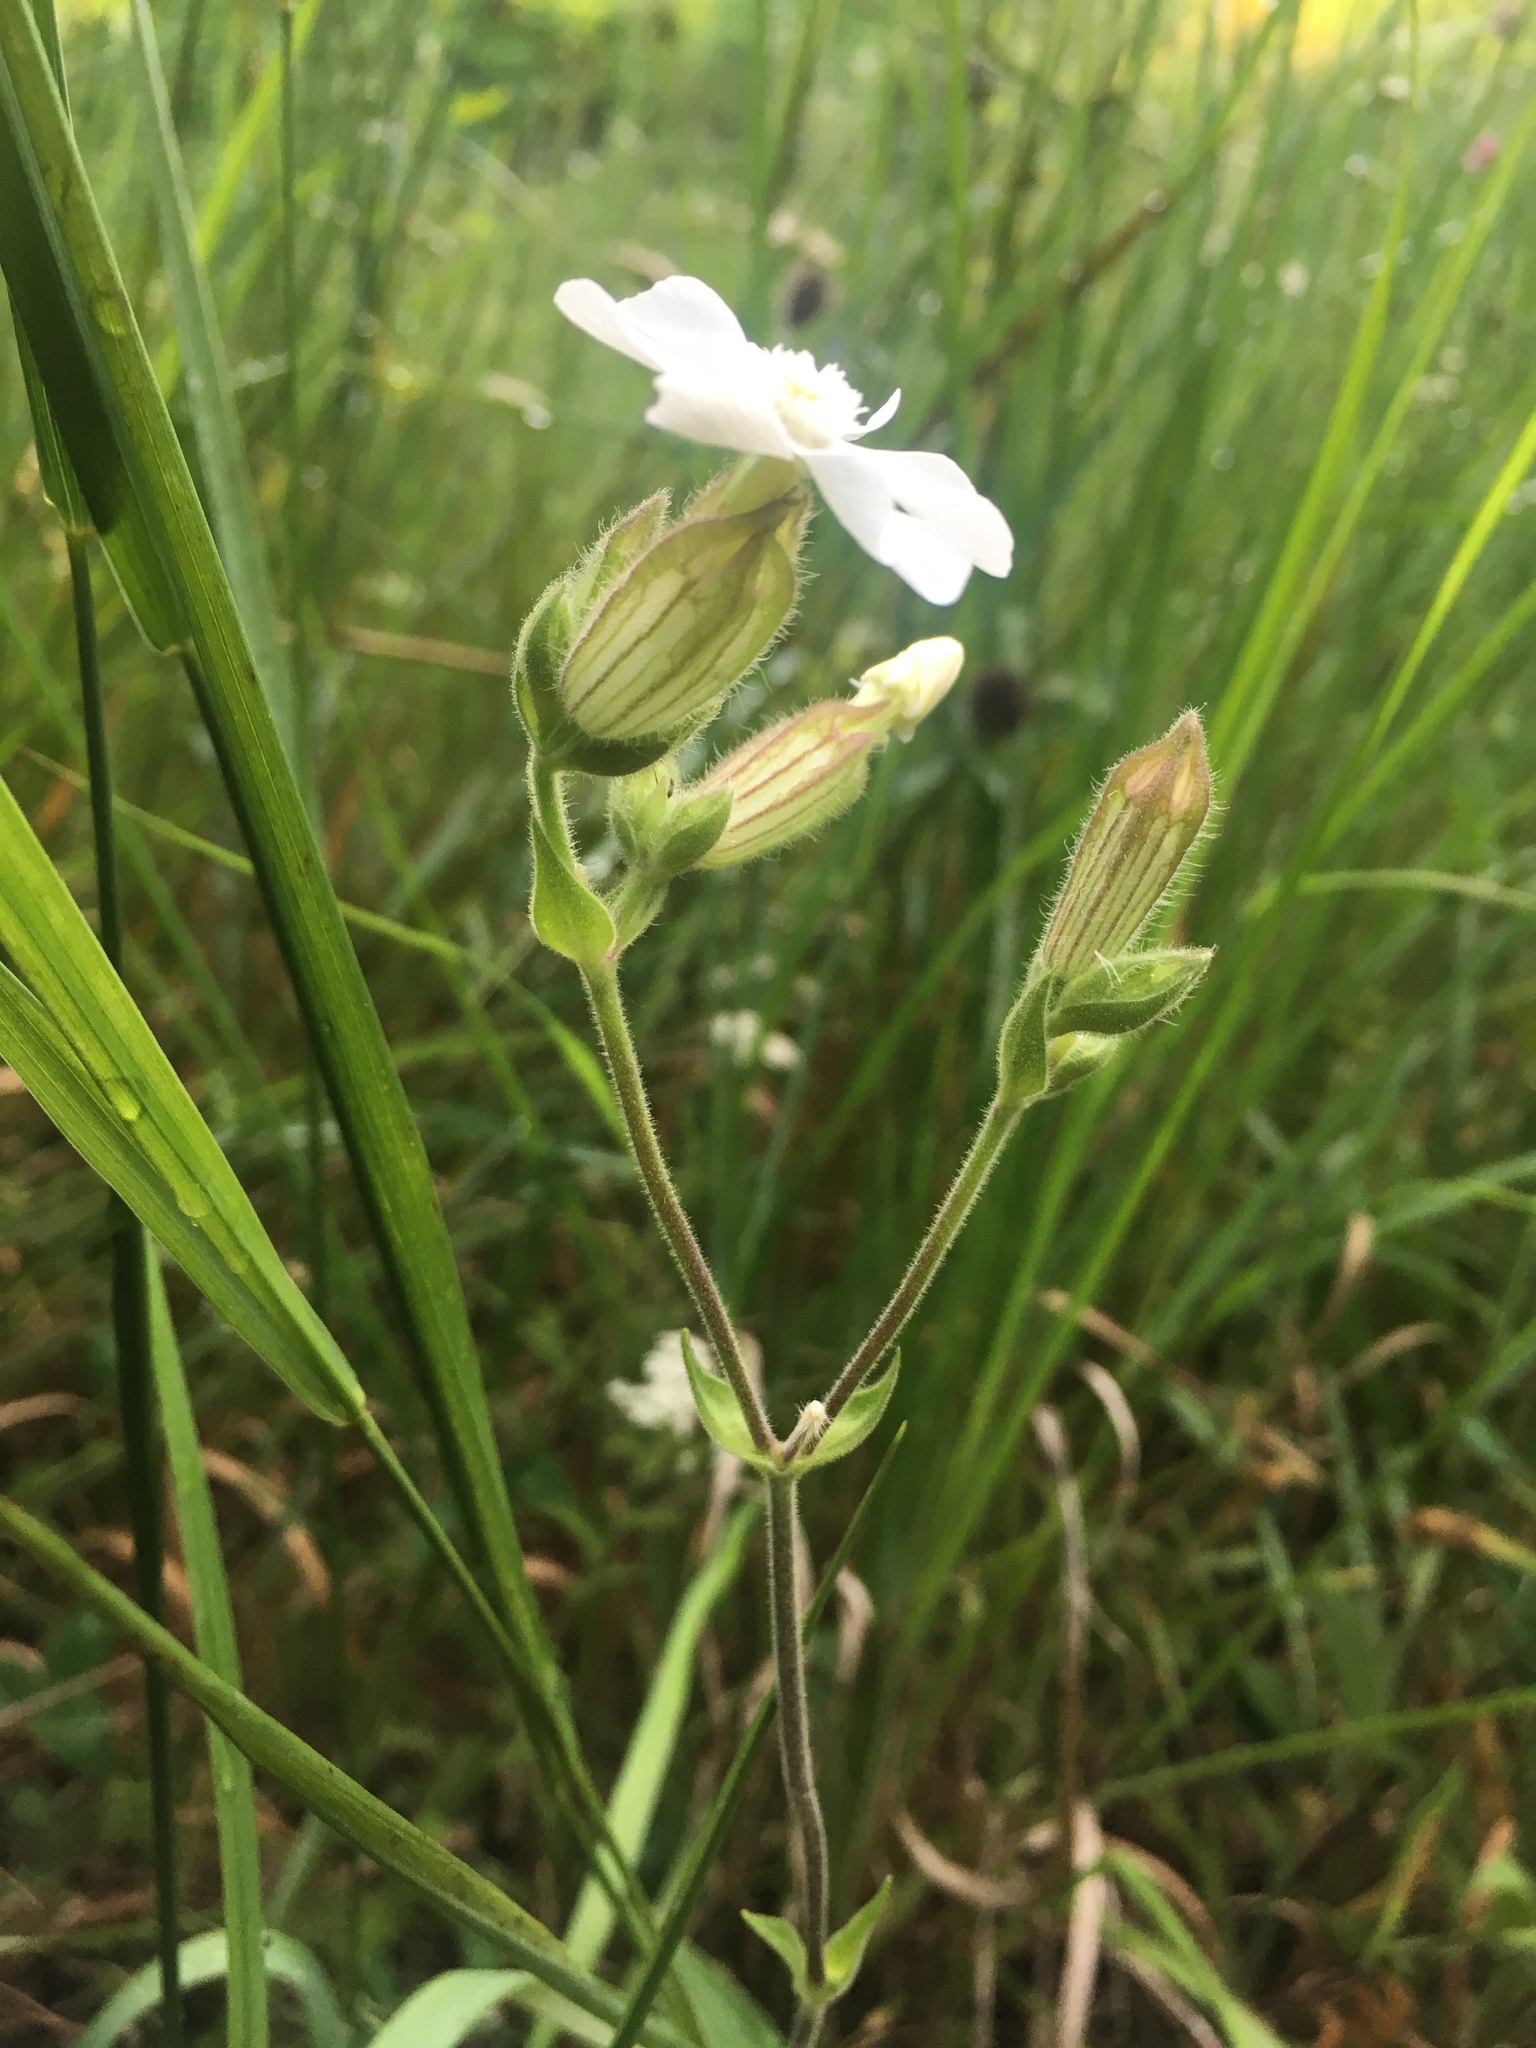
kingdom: Plantae
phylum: Tracheophyta
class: Magnoliopsida
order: Caryophyllales
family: Caryophyllaceae
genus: Silene
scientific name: Silene latifolia
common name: White campion
